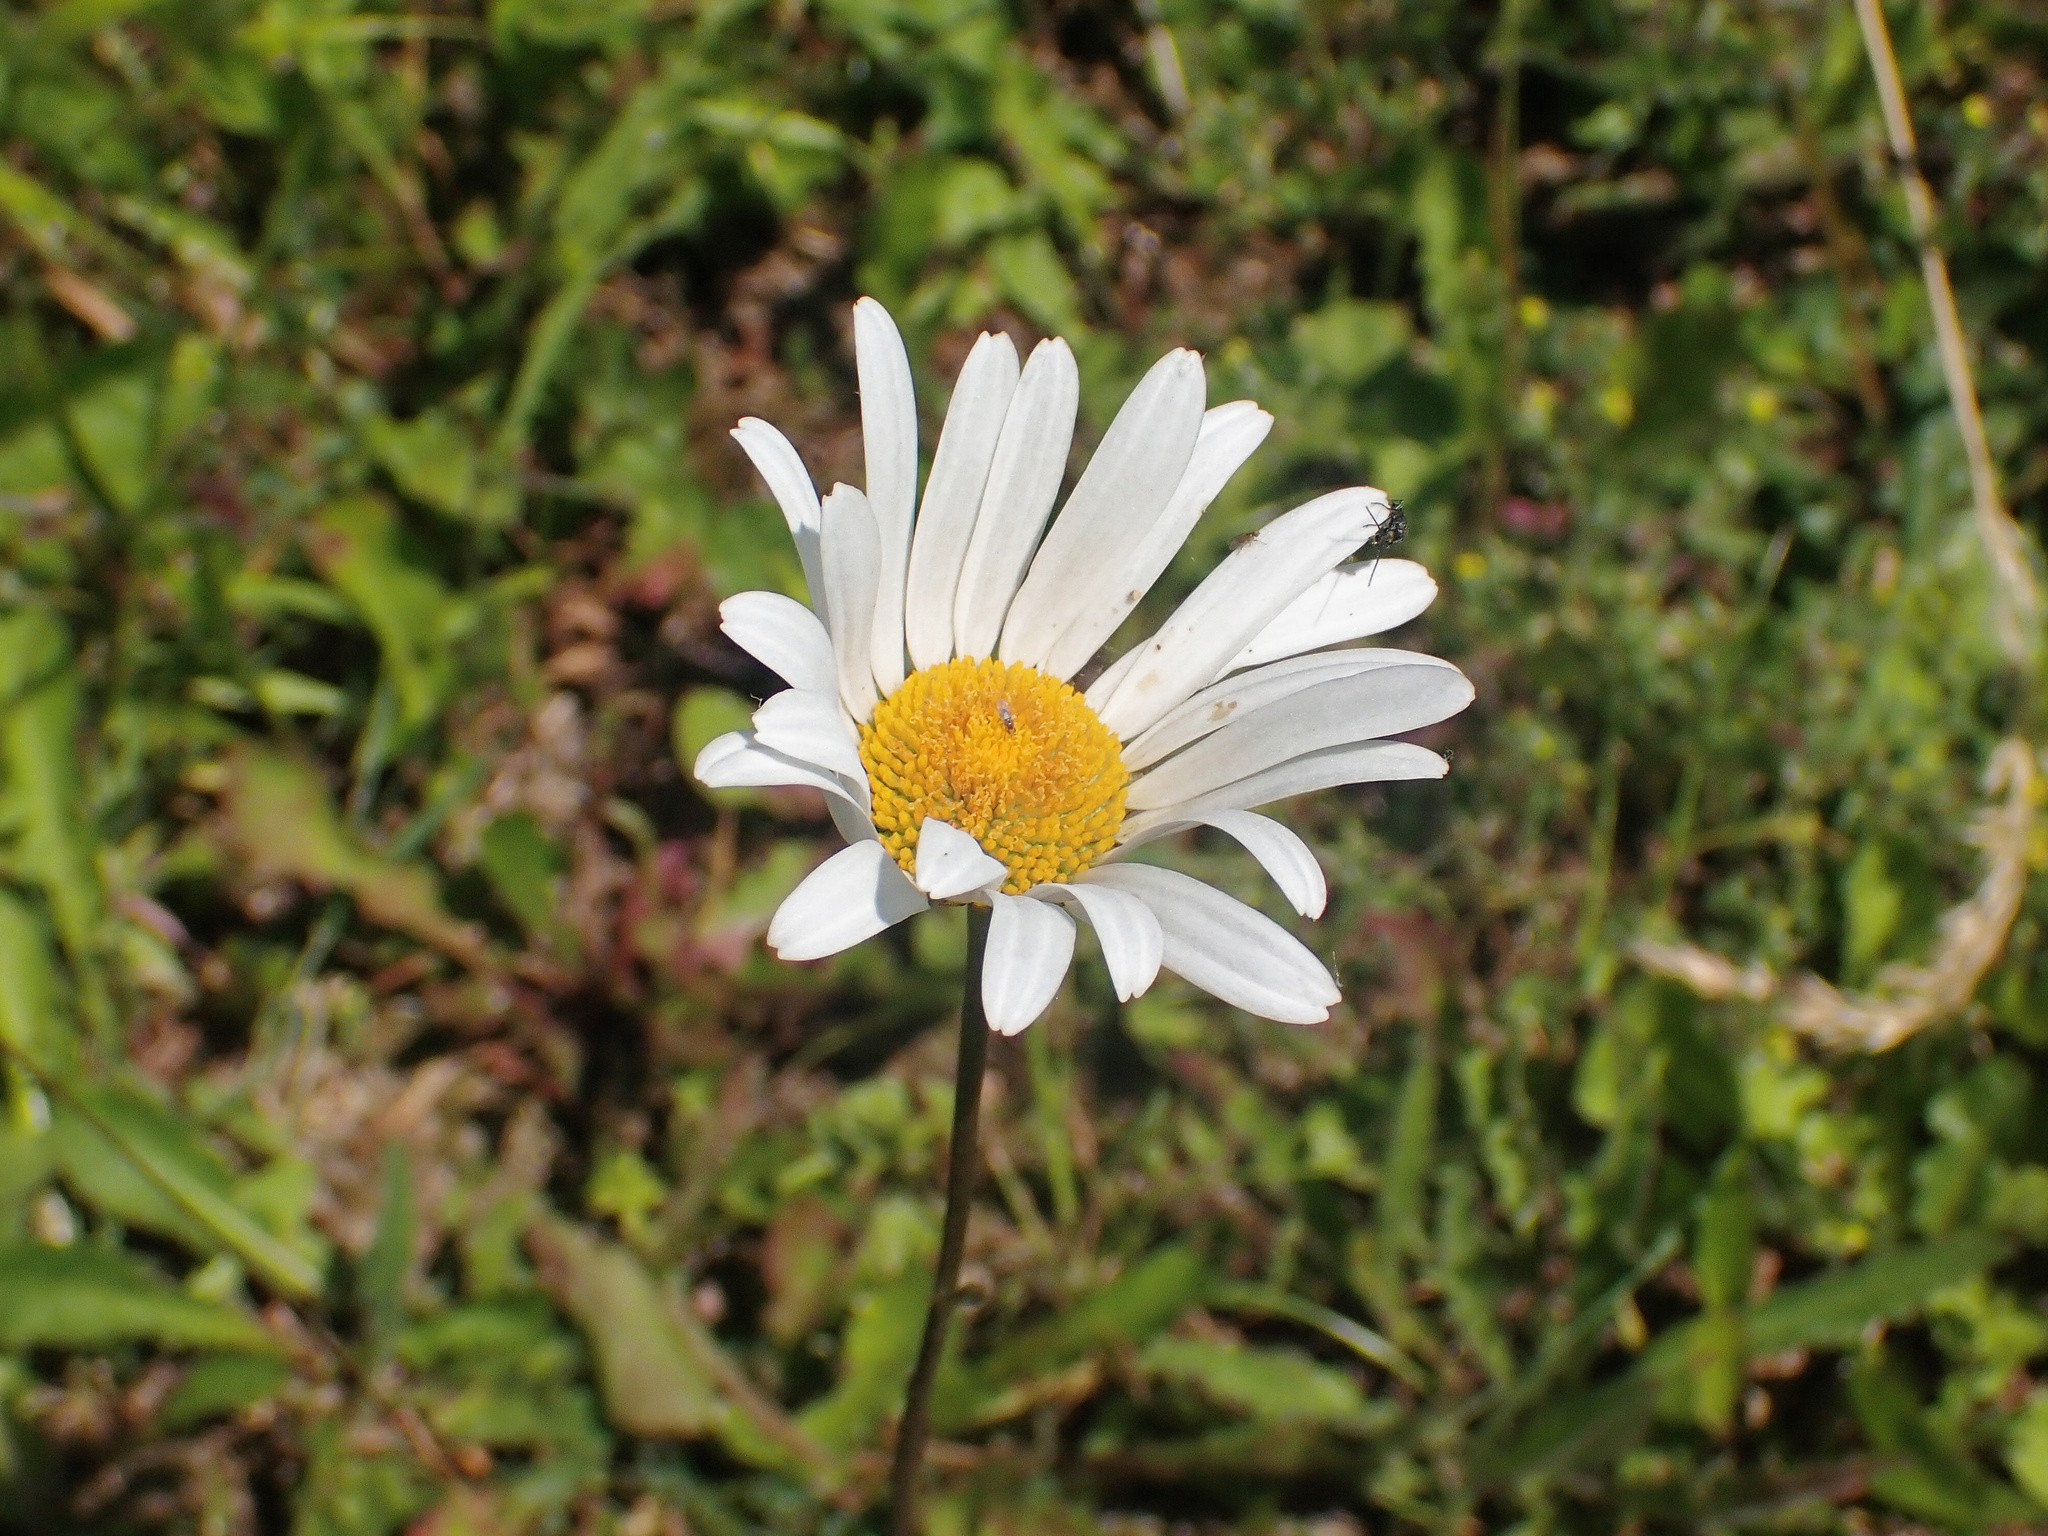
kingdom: Plantae
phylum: Tracheophyta
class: Magnoliopsida
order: Asterales
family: Asteraceae
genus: Leucanthemum
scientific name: Leucanthemum vulgare
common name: Oxeye daisy
